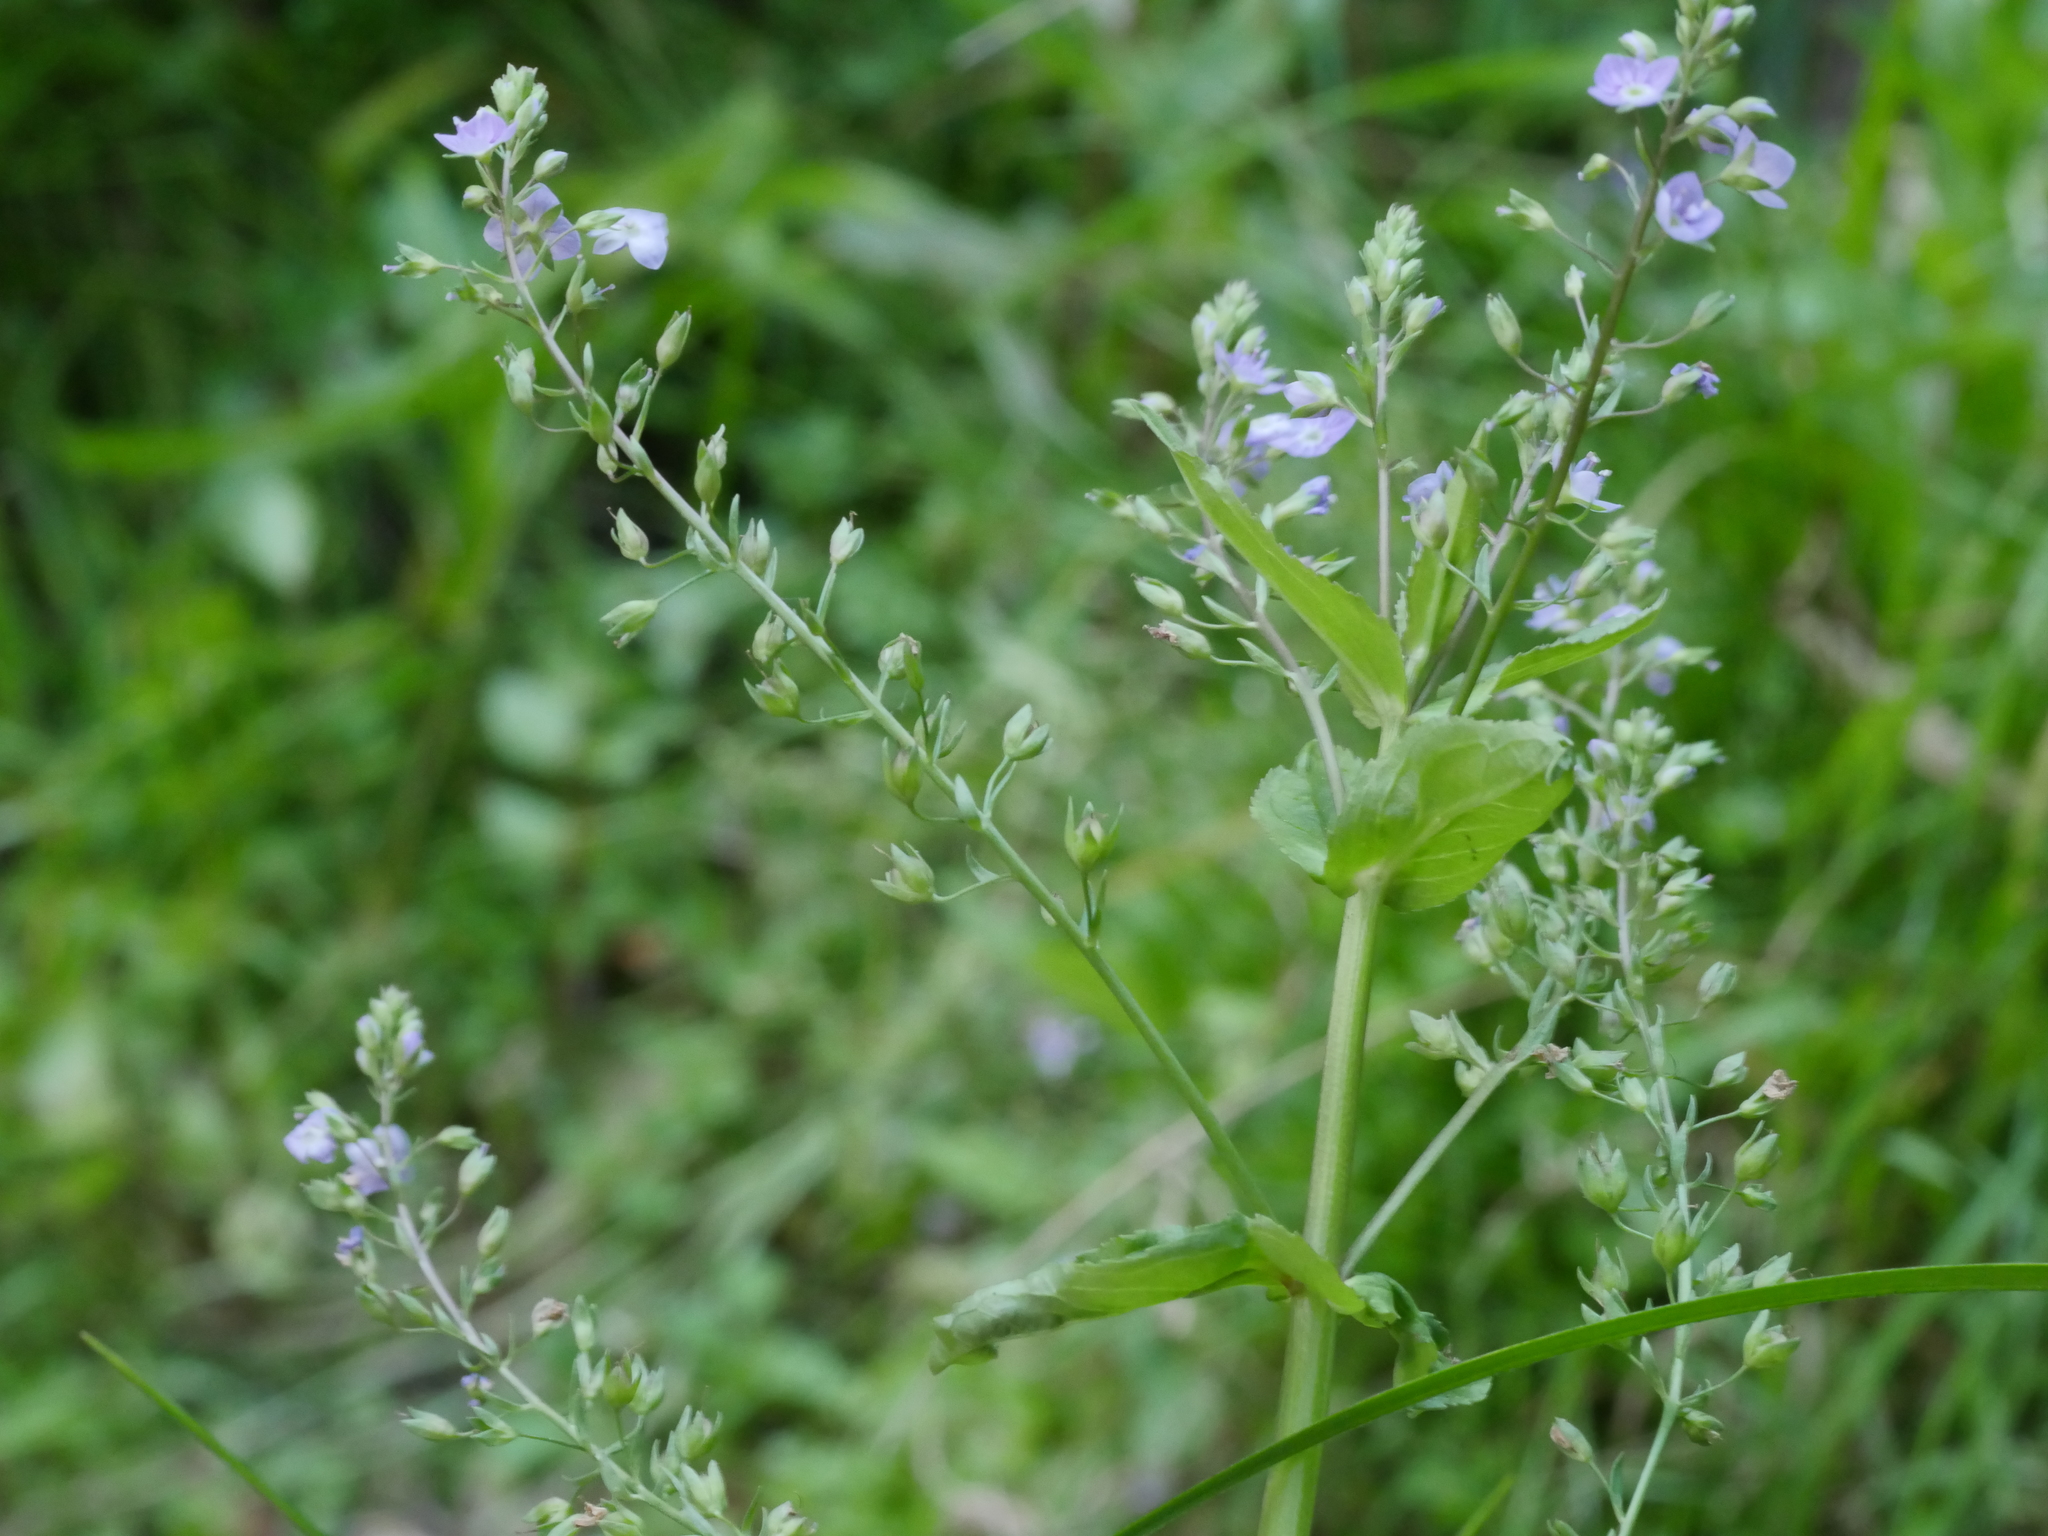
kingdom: Plantae
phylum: Tracheophyta
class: Magnoliopsida
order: Lamiales
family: Plantaginaceae
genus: Veronica
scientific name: Veronica anagallis-aquatica
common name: Water speedwell
